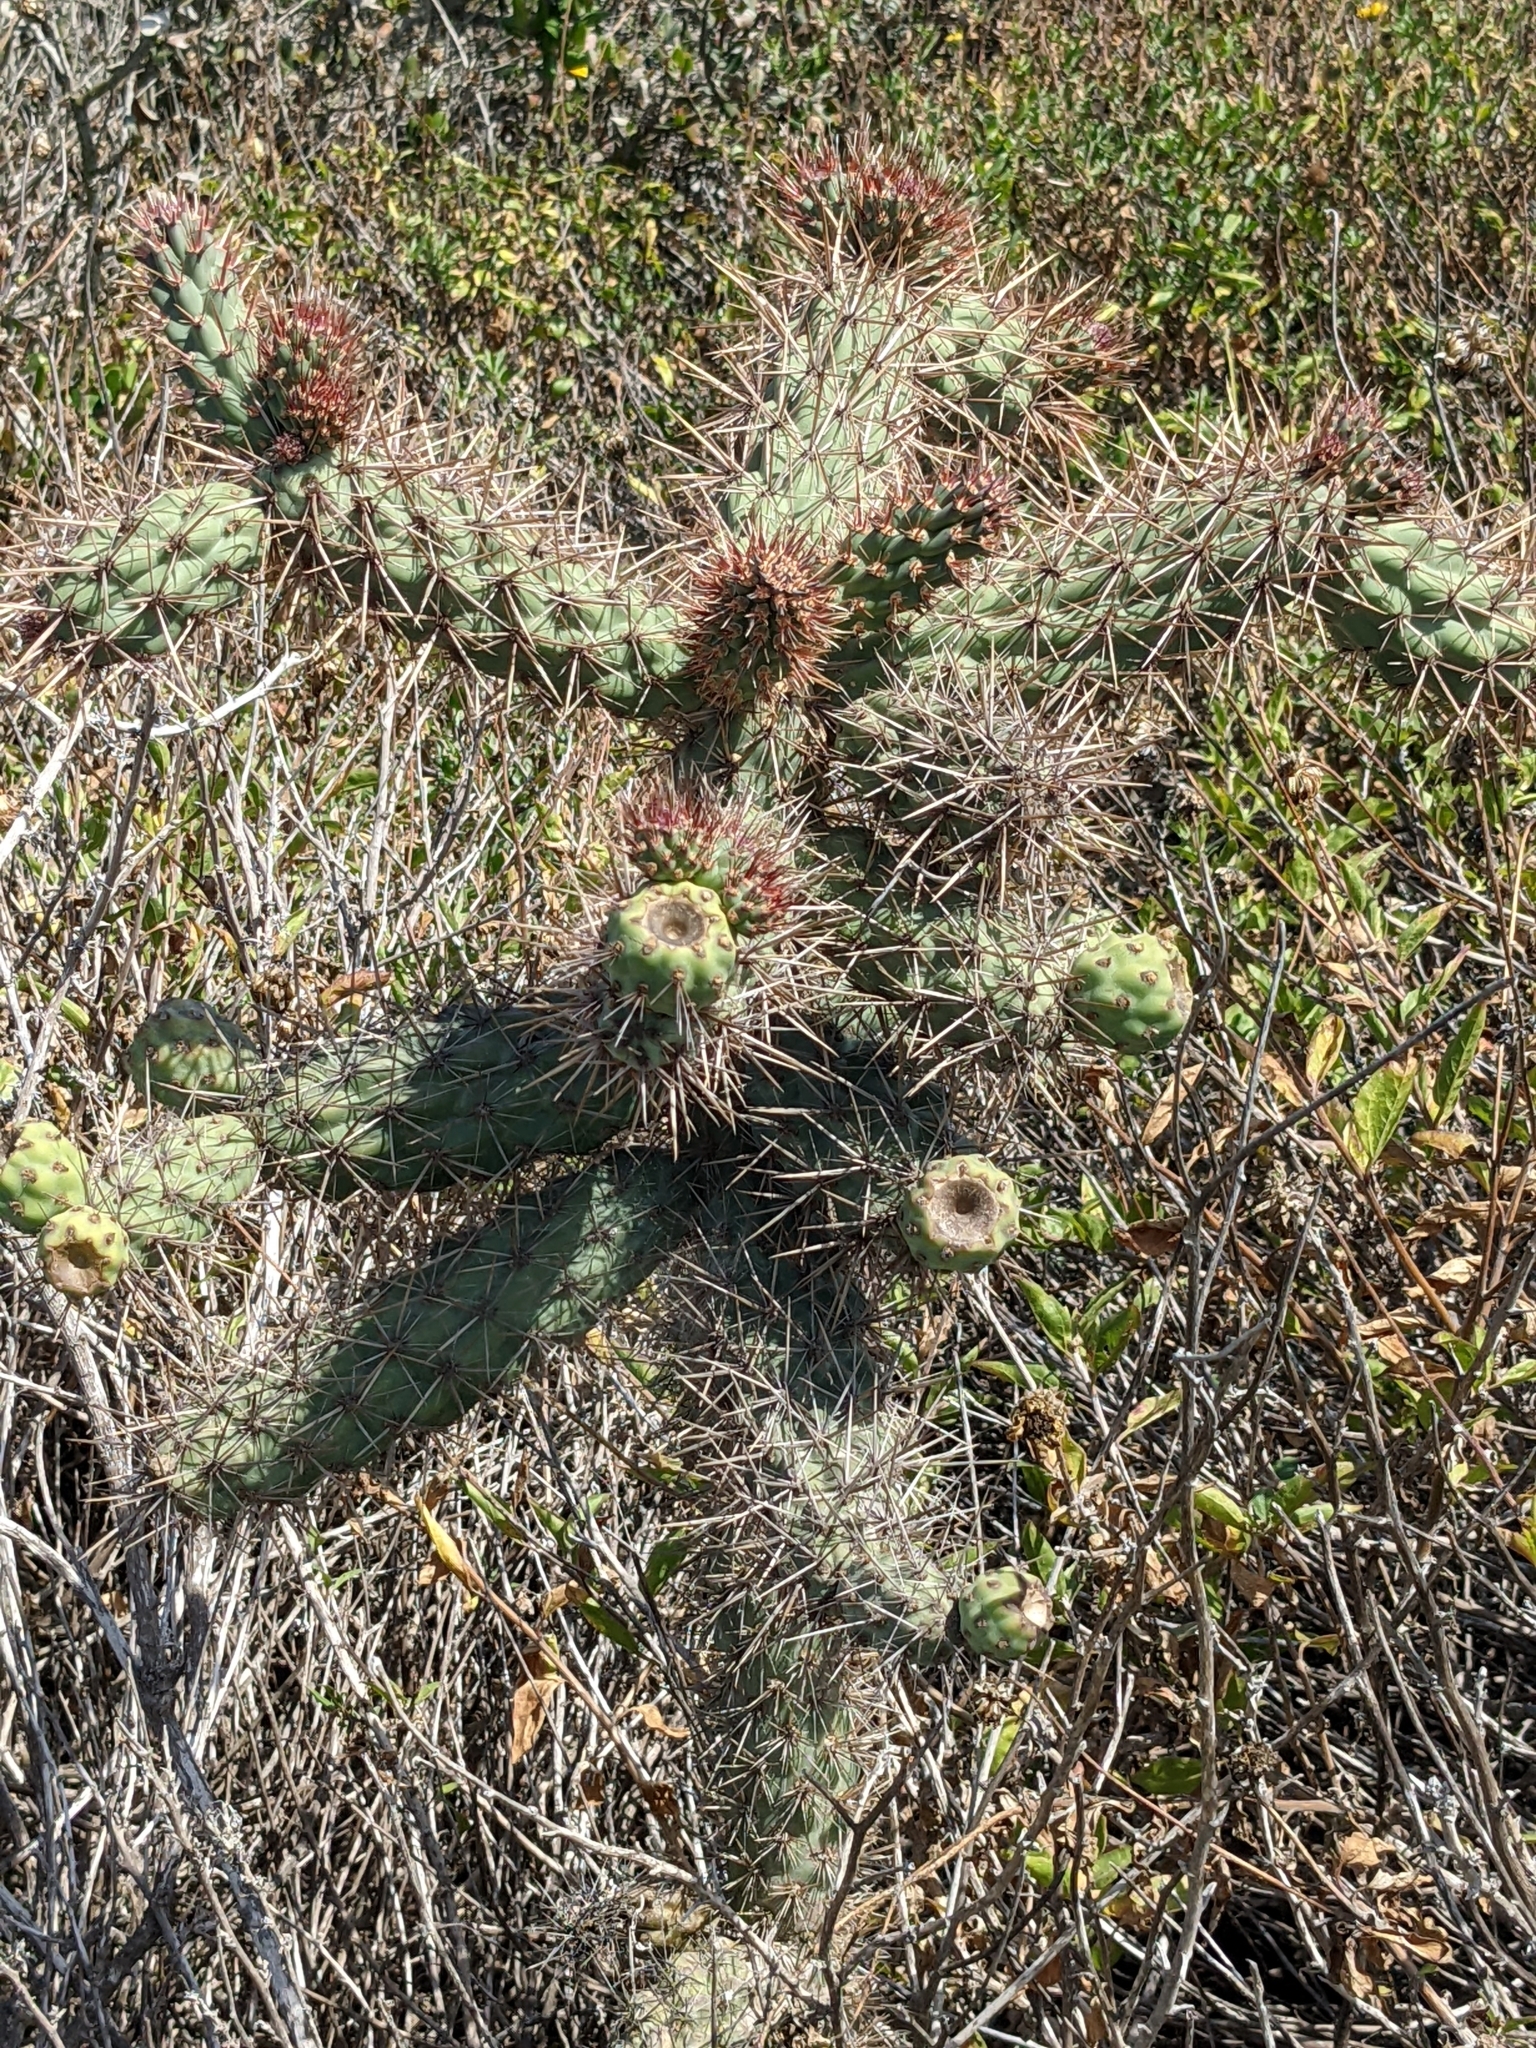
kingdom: Plantae
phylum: Tracheophyta
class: Magnoliopsida
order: Caryophyllales
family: Cactaceae
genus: Cylindropuntia
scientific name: Cylindropuntia prolifera
